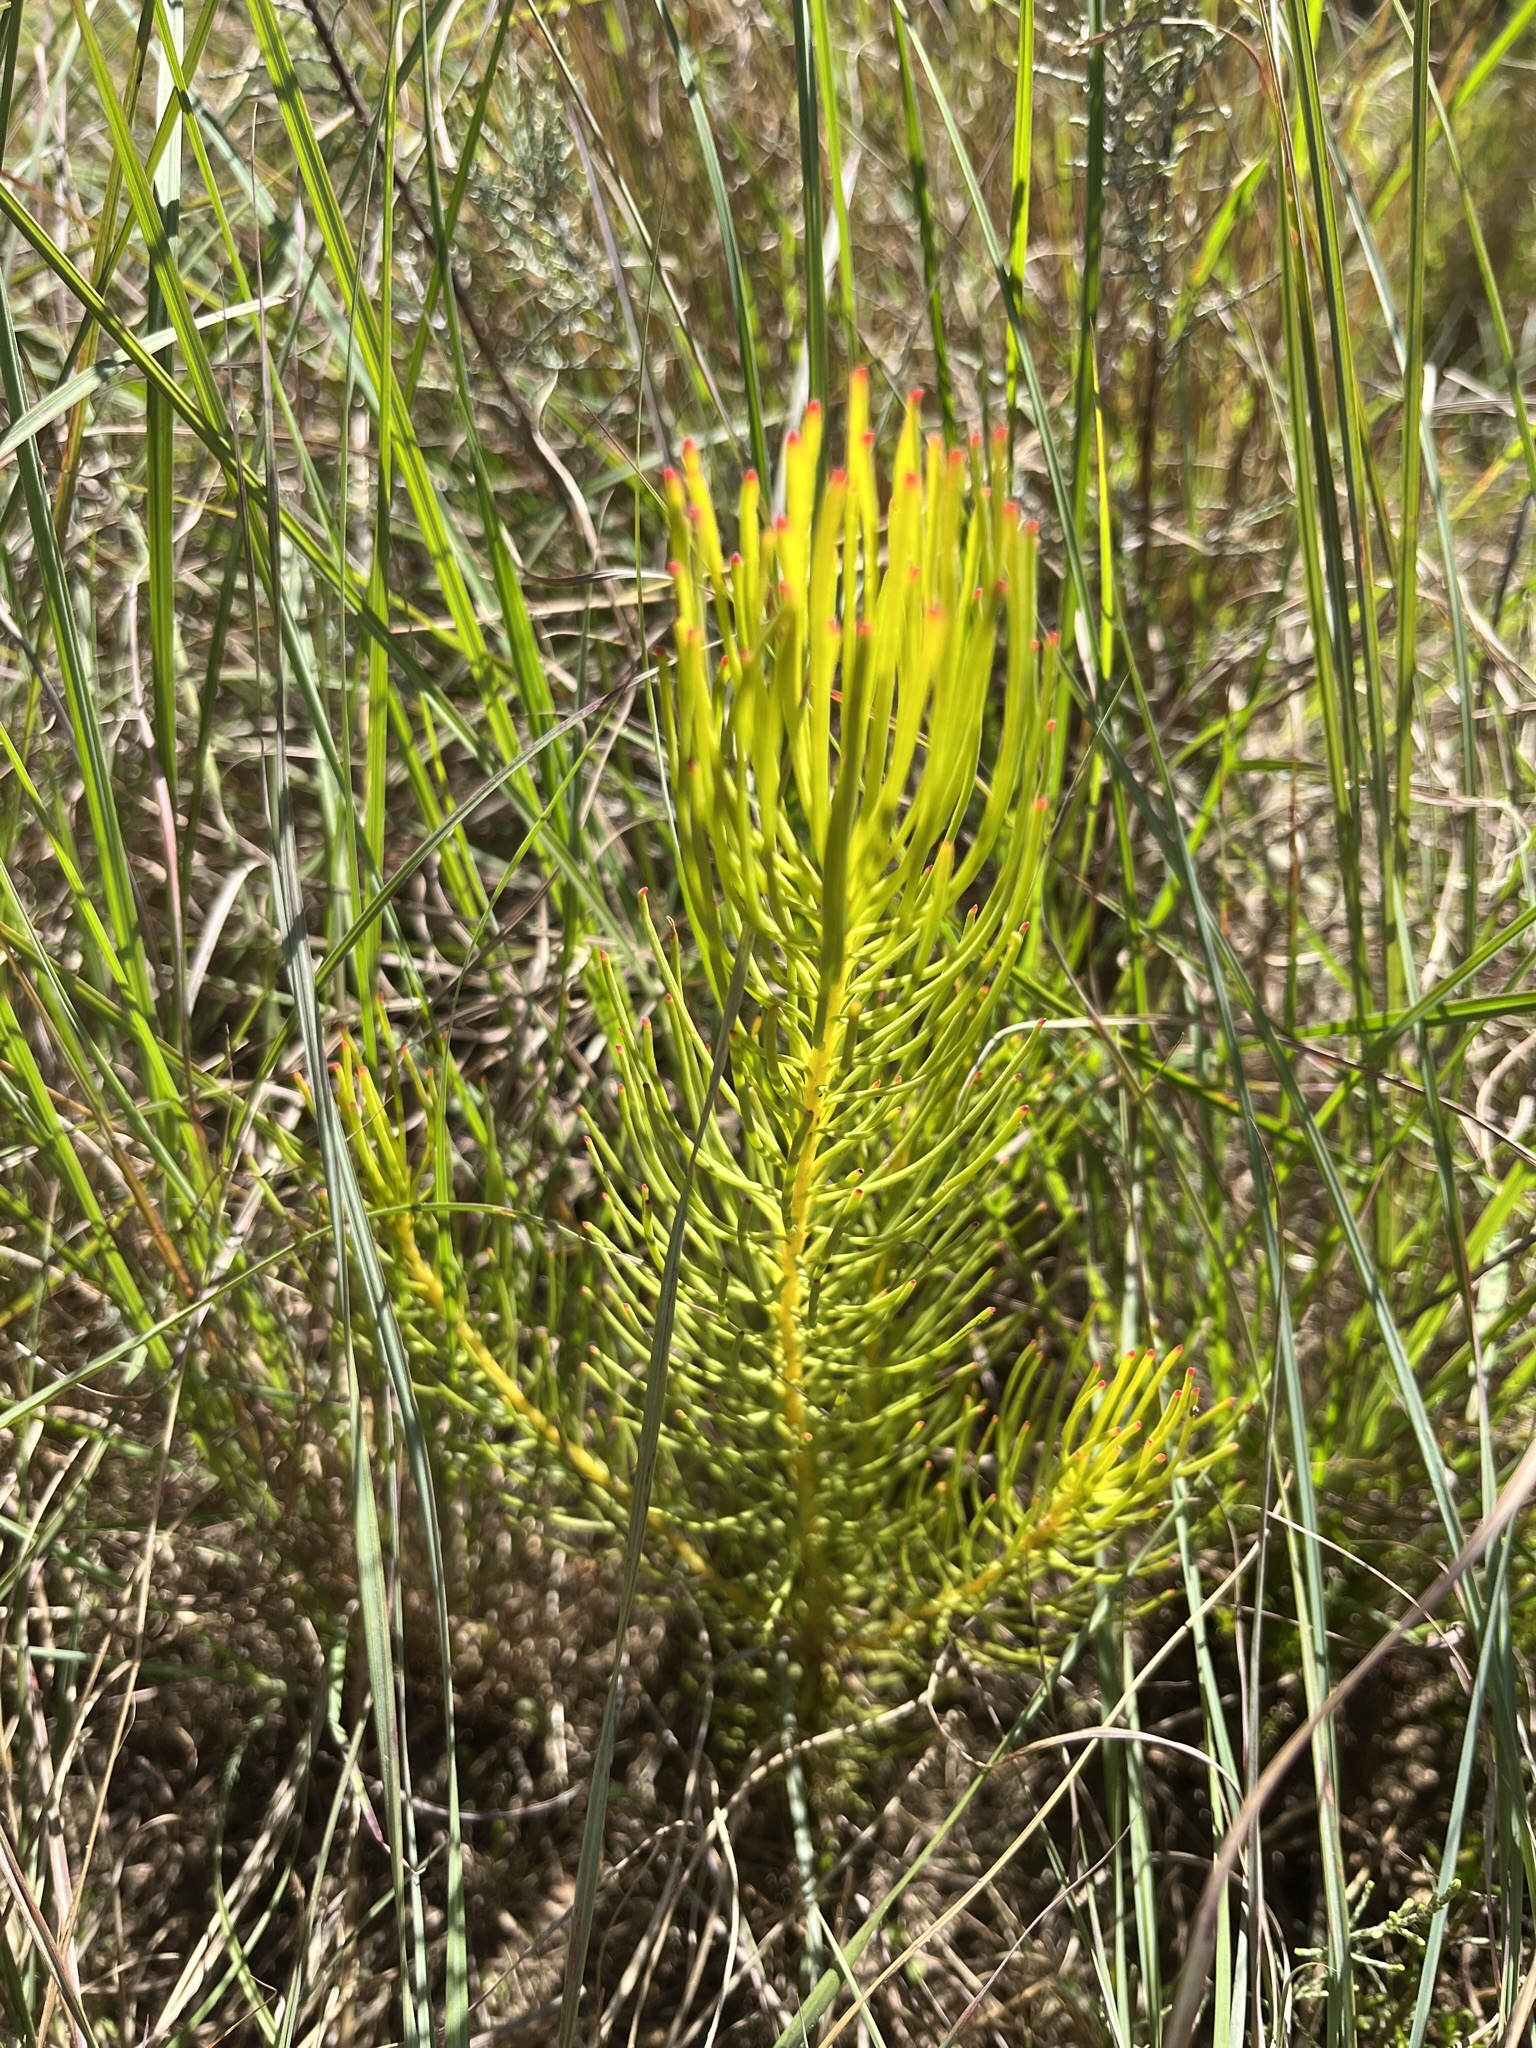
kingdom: Plantae
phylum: Tracheophyta
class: Magnoliopsida
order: Proteales
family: Proteaceae
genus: Leucadendron
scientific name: Leucadendron platyspermum
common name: Plate-seed conebush
